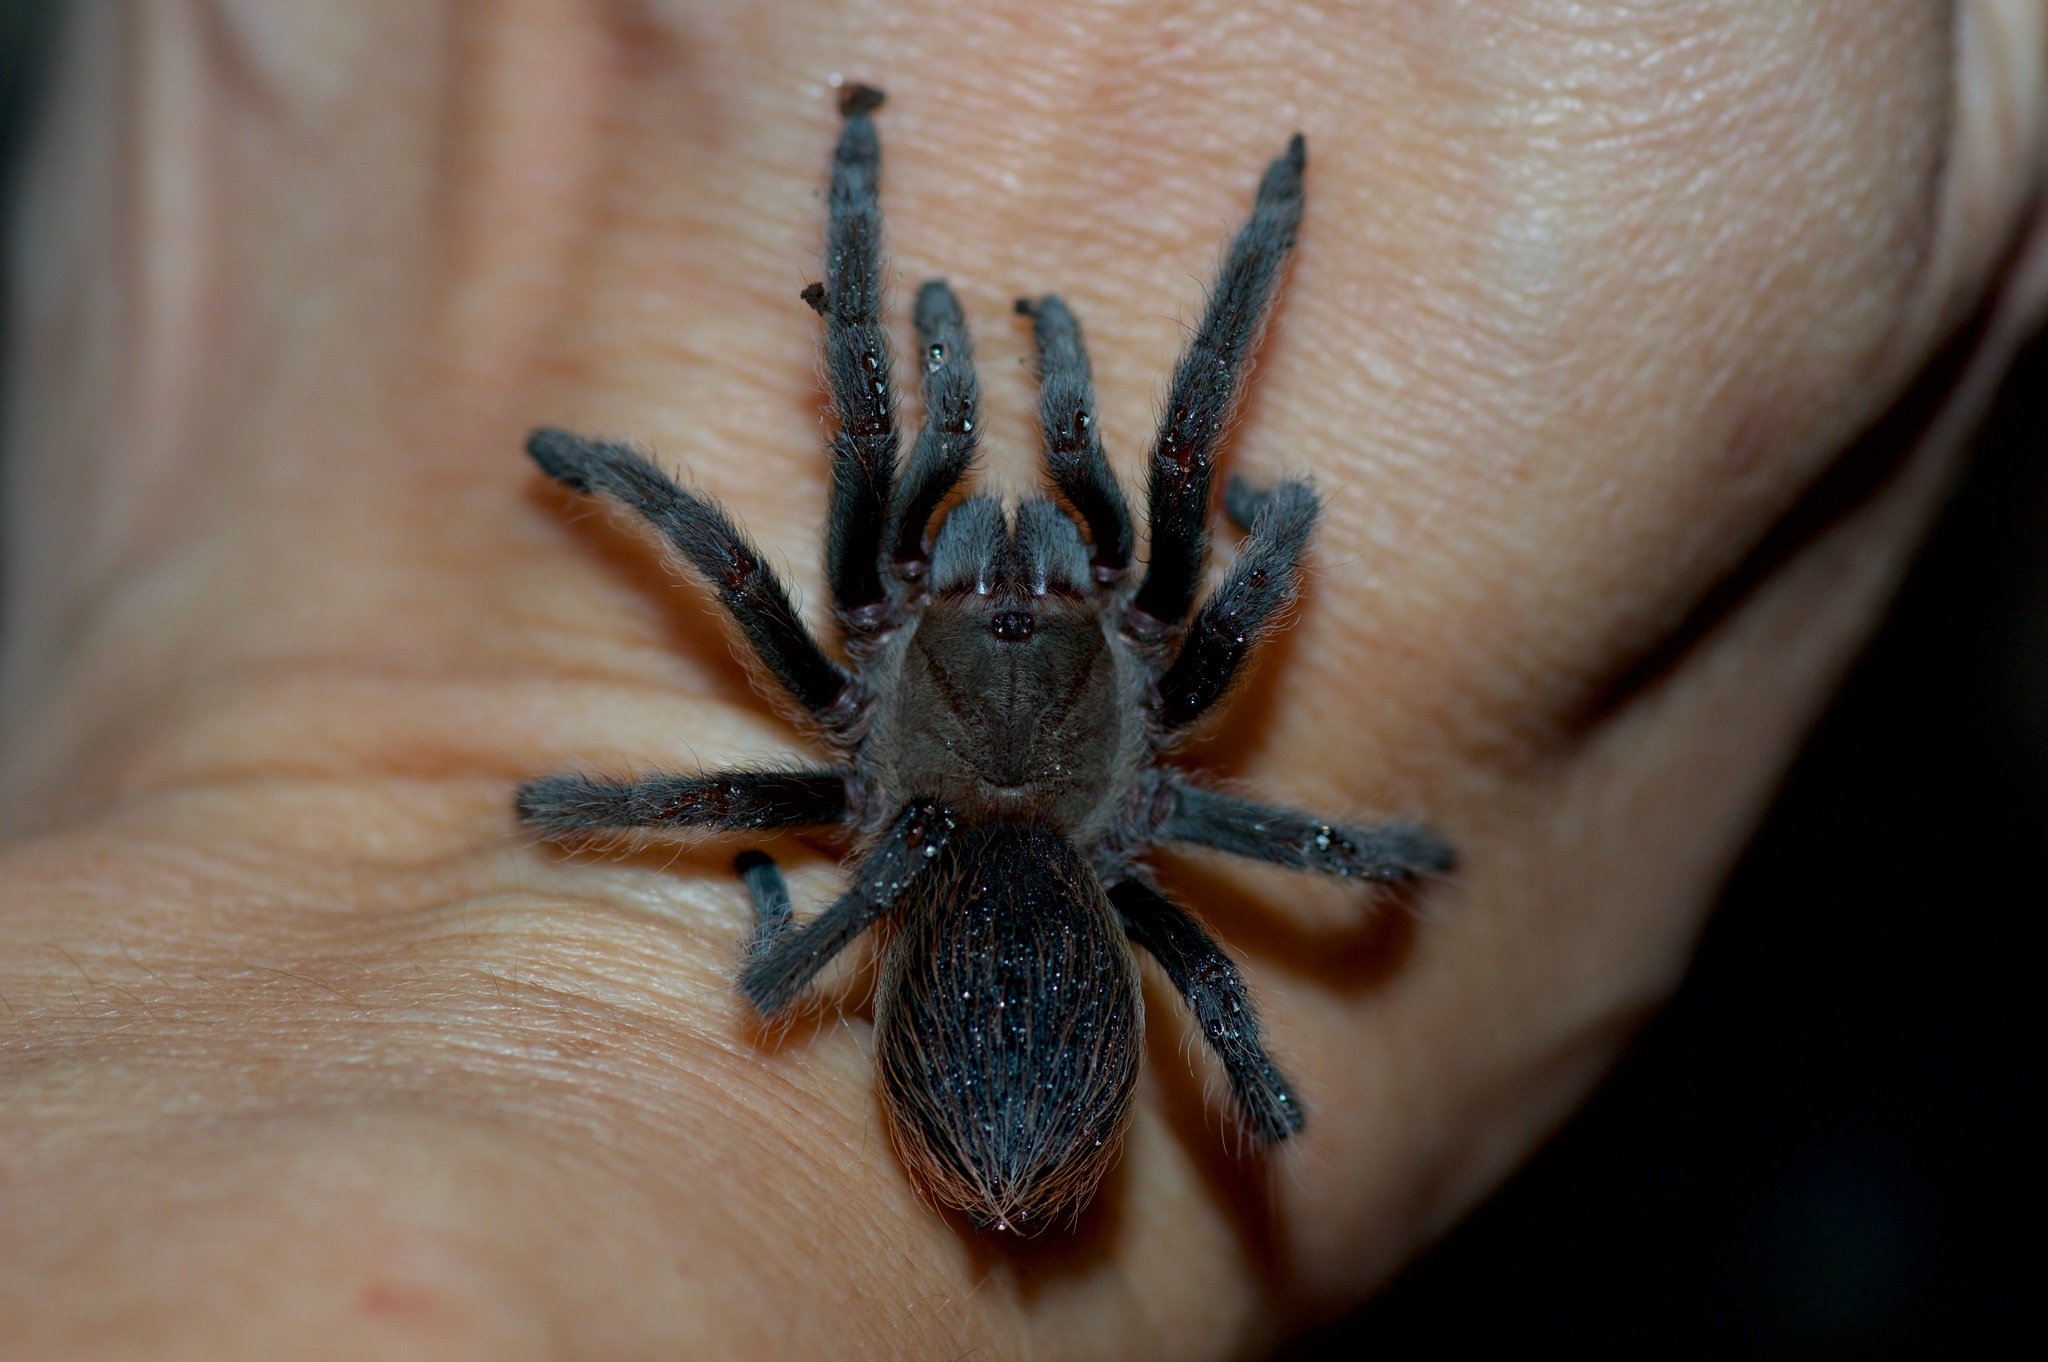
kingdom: Animalia
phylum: Arthropoda
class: Arachnida
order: Araneae
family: Theraphosidae
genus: Aphonopelma
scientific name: Aphonopelma hentzi
